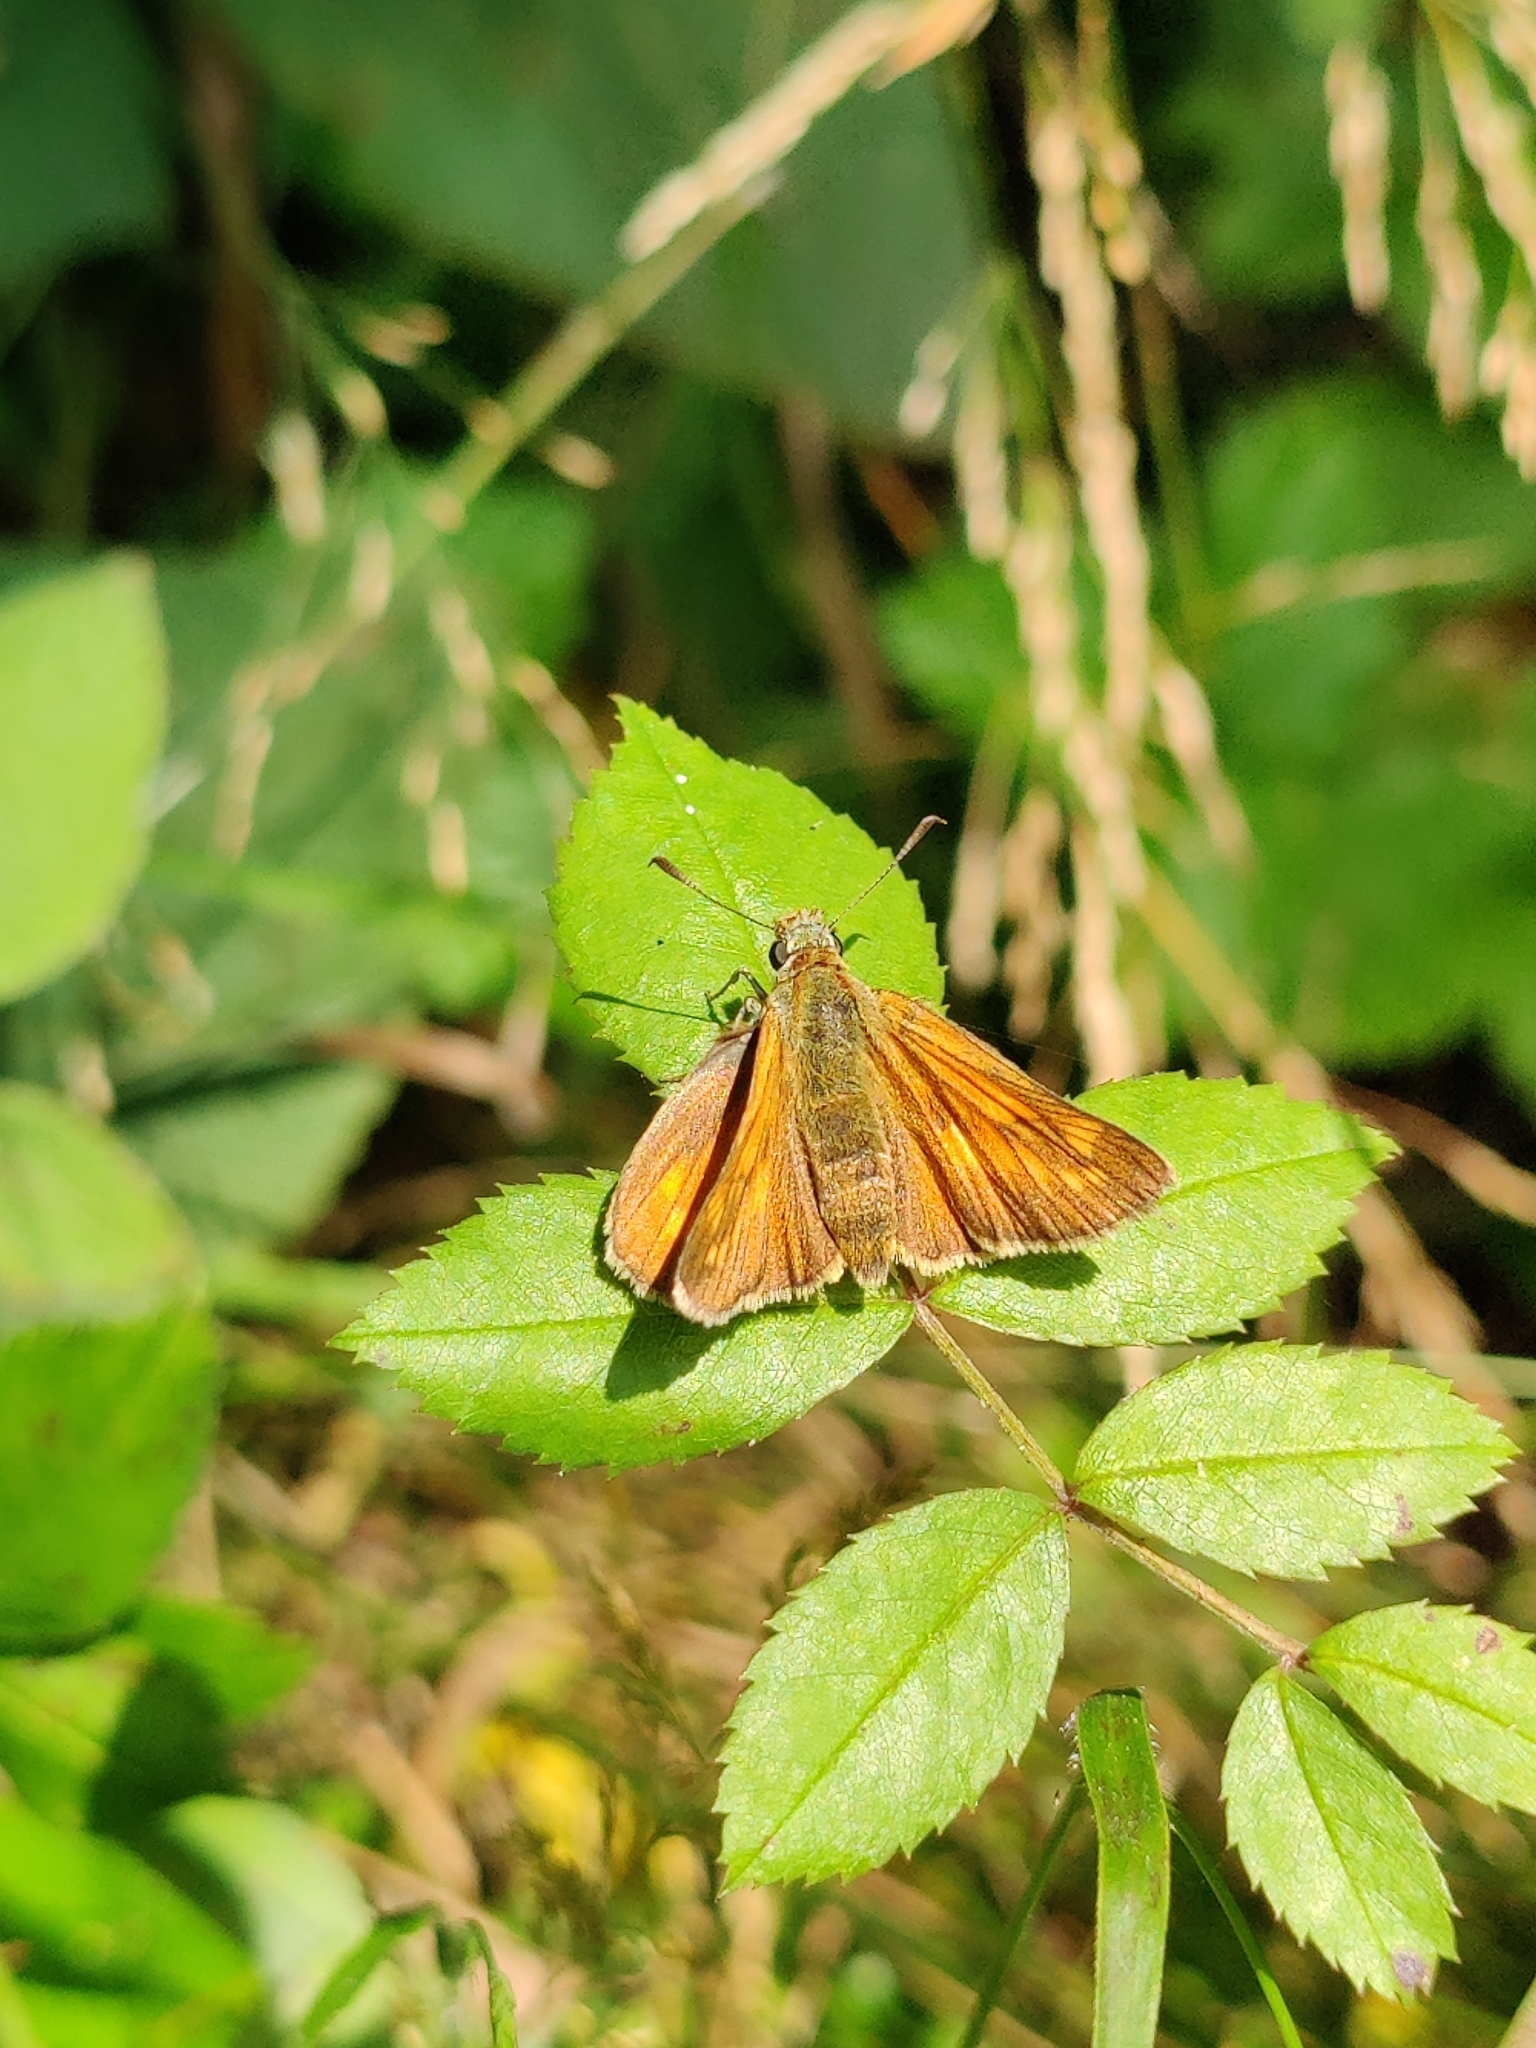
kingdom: Animalia
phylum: Arthropoda
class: Insecta
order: Lepidoptera
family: Hesperiidae
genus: Ochlodes
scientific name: Ochlodes venata
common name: Large skipper
